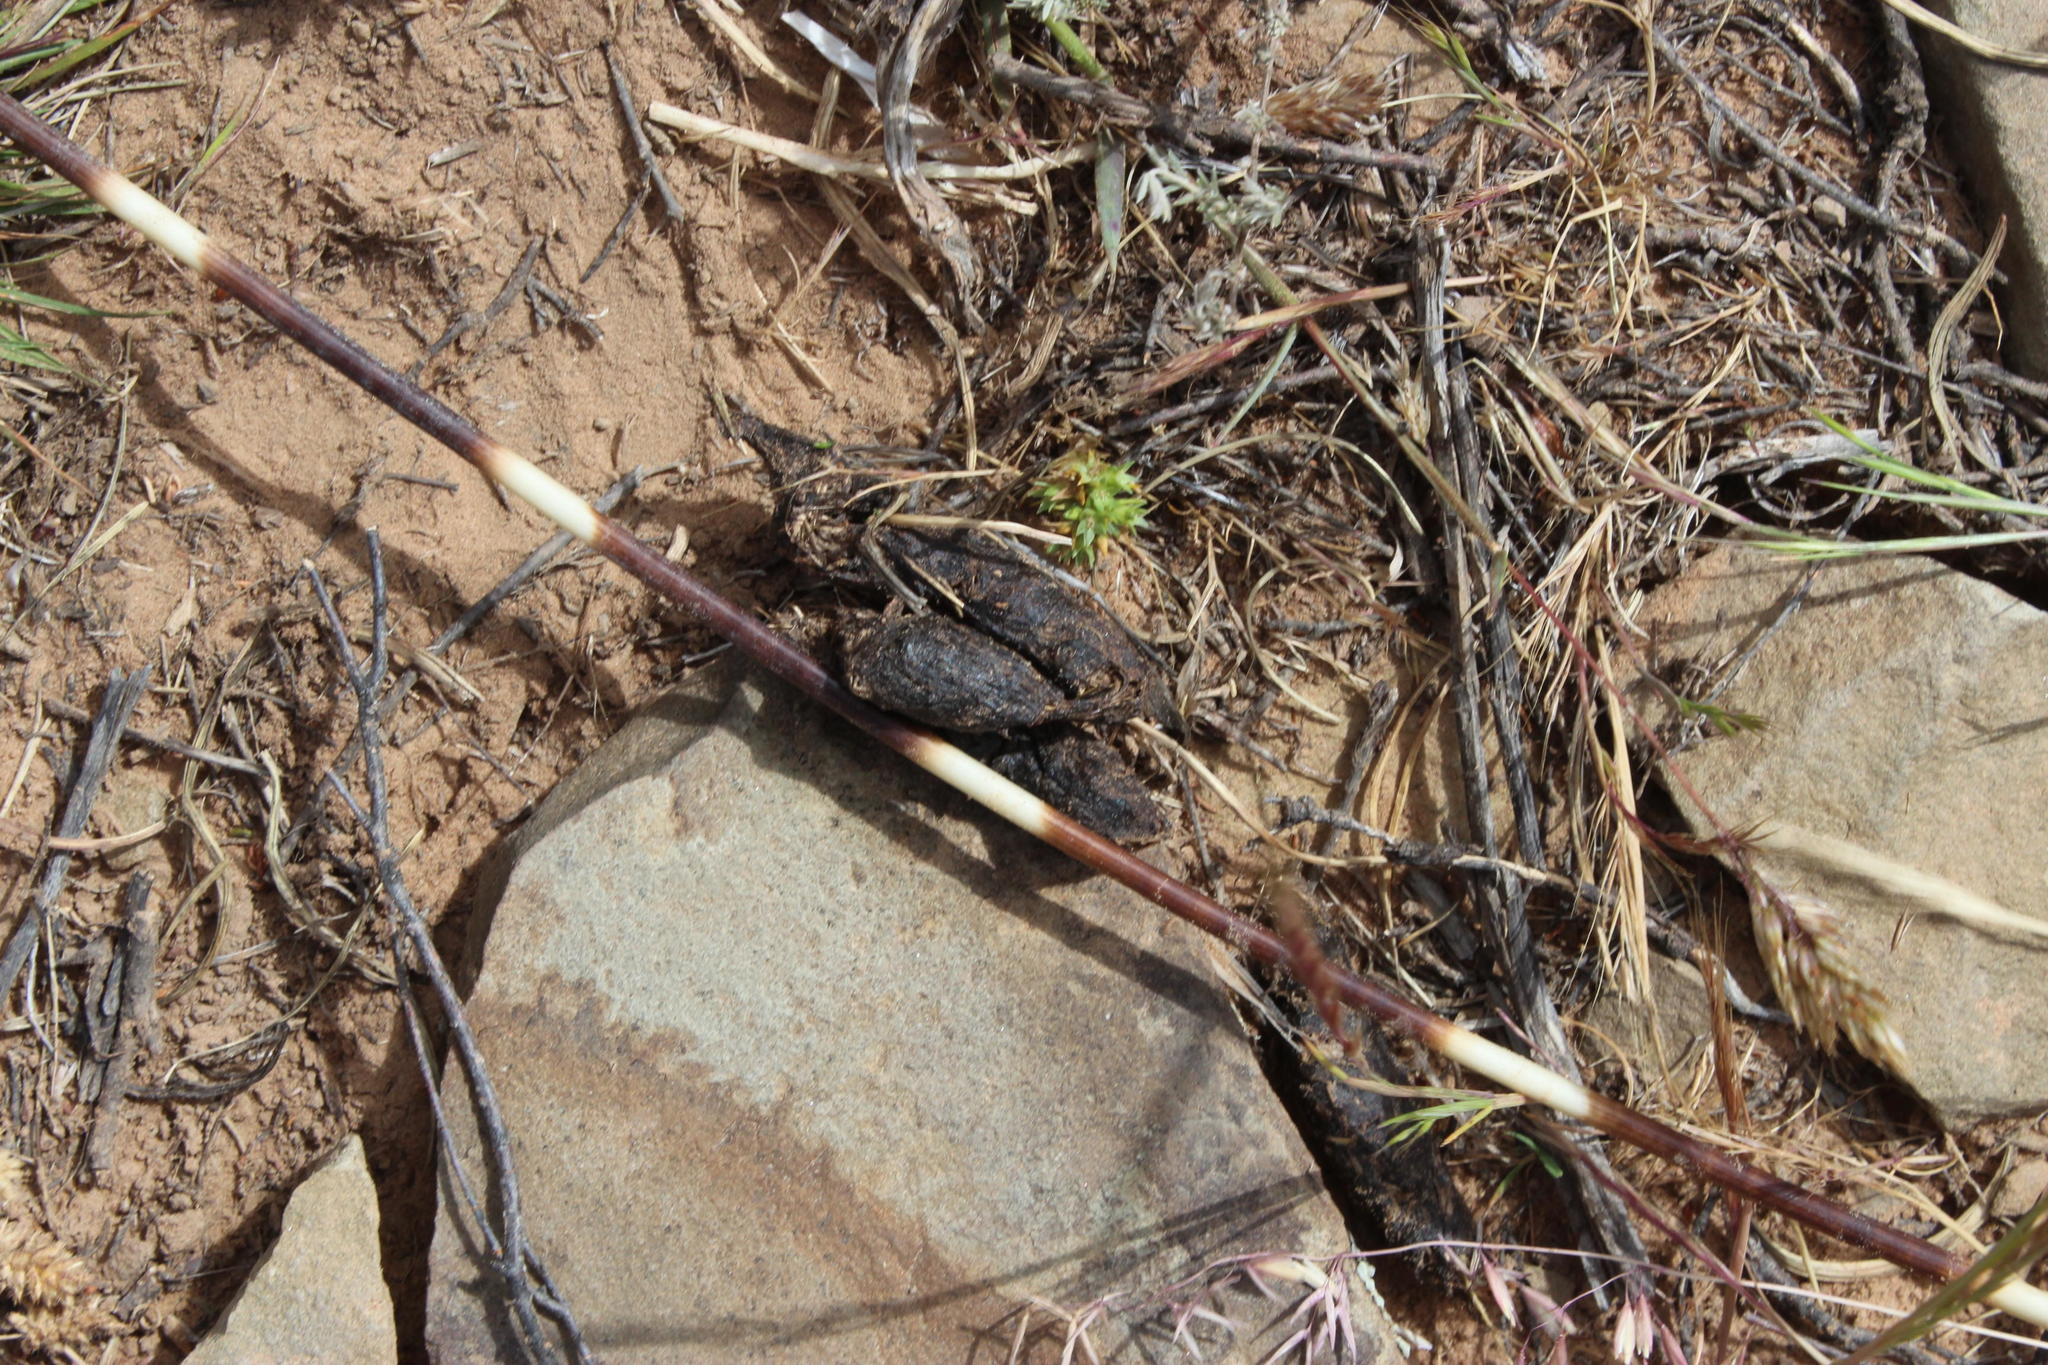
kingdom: Animalia
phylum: Chordata
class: Mammalia
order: Rodentia
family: Hystricidae
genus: Hystrix
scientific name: Hystrix africaeaustralis
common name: Cape porcupine
